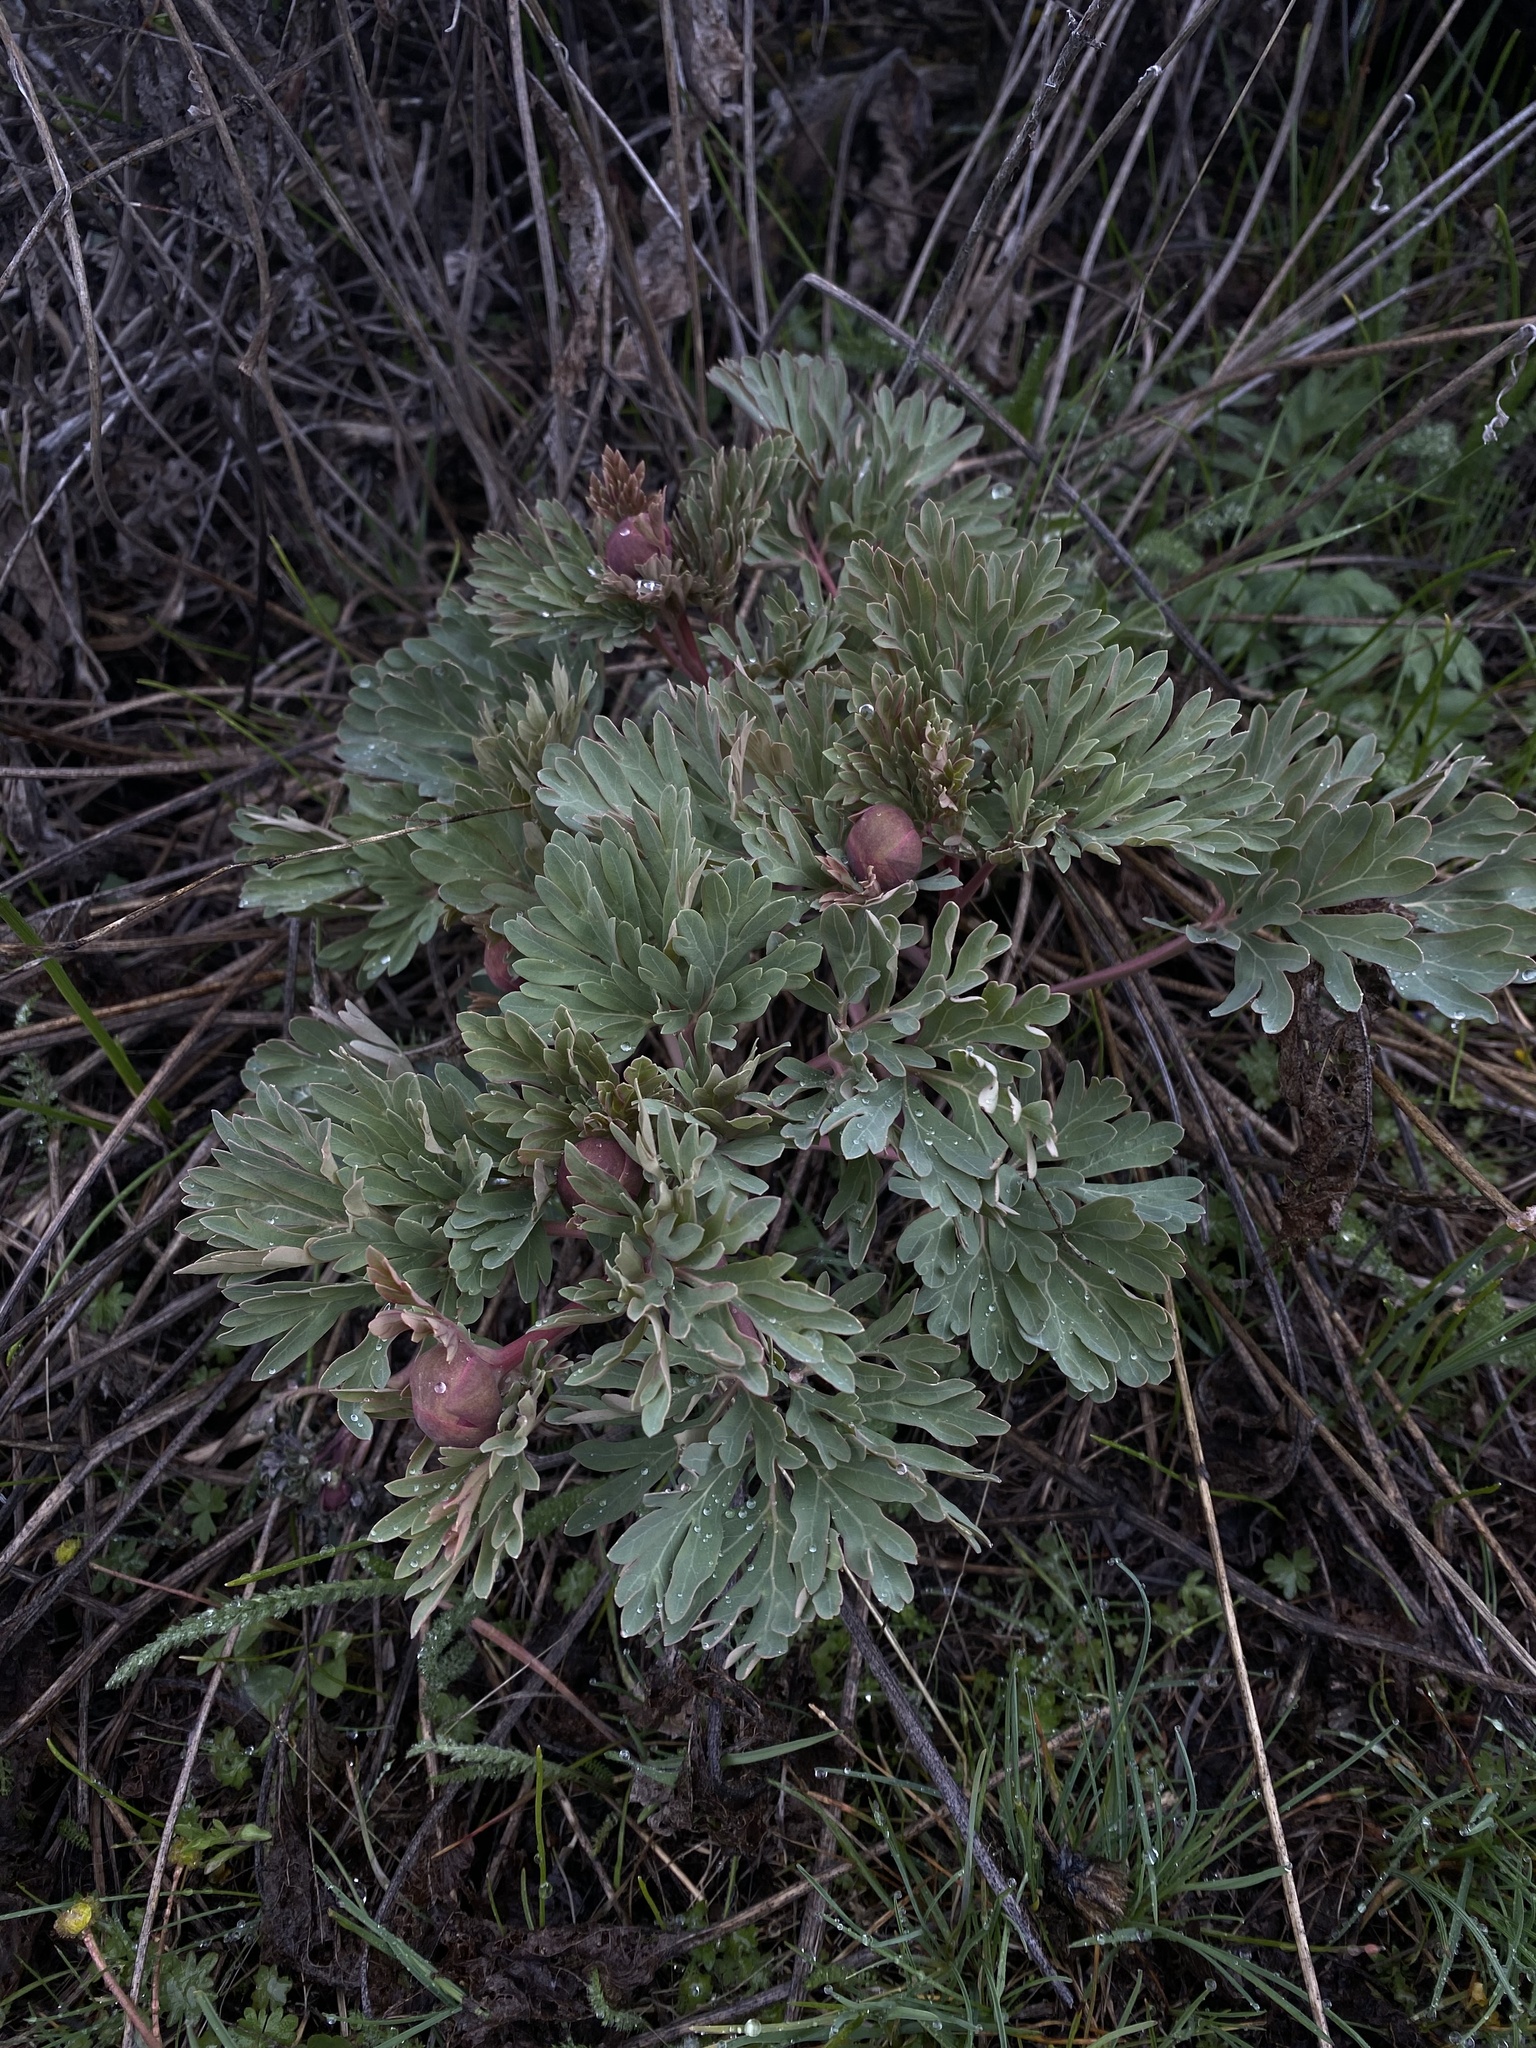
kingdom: Plantae
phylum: Tracheophyta
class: Magnoliopsida
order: Saxifragales
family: Paeoniaceae
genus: Paeonia
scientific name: Paeonia brownii
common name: Brown's peony
